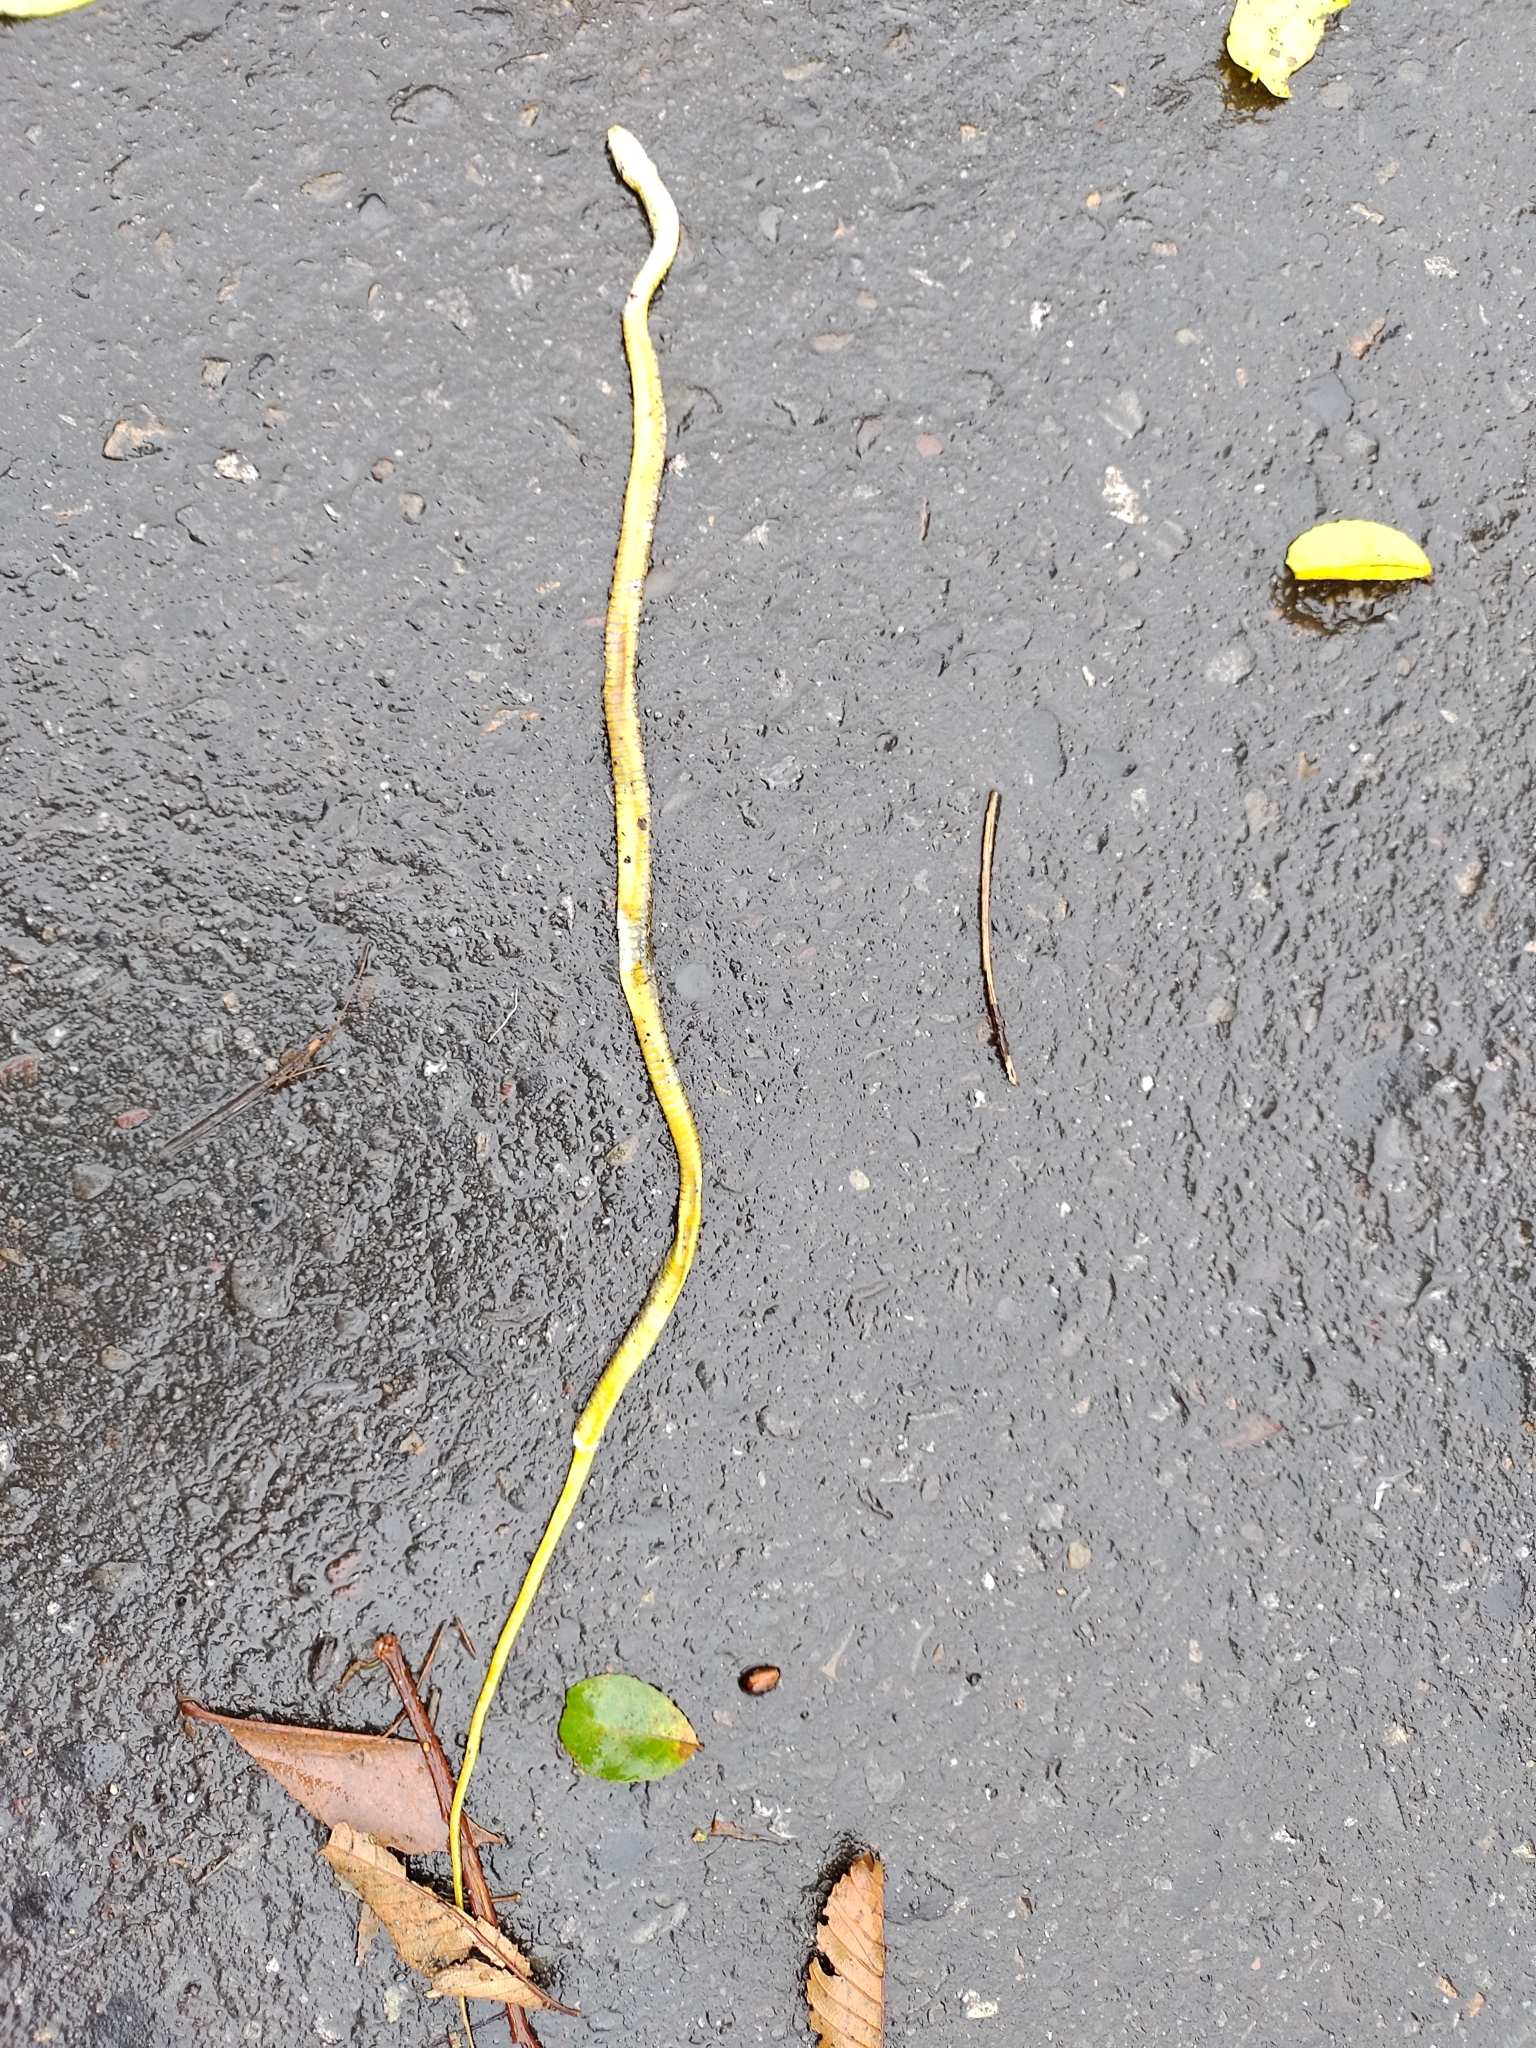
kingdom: Animalia
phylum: Chordata
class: Squamata
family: Colubridae
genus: Drymoluber
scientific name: Drymoluber dichrous
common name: Northern woodland racer
